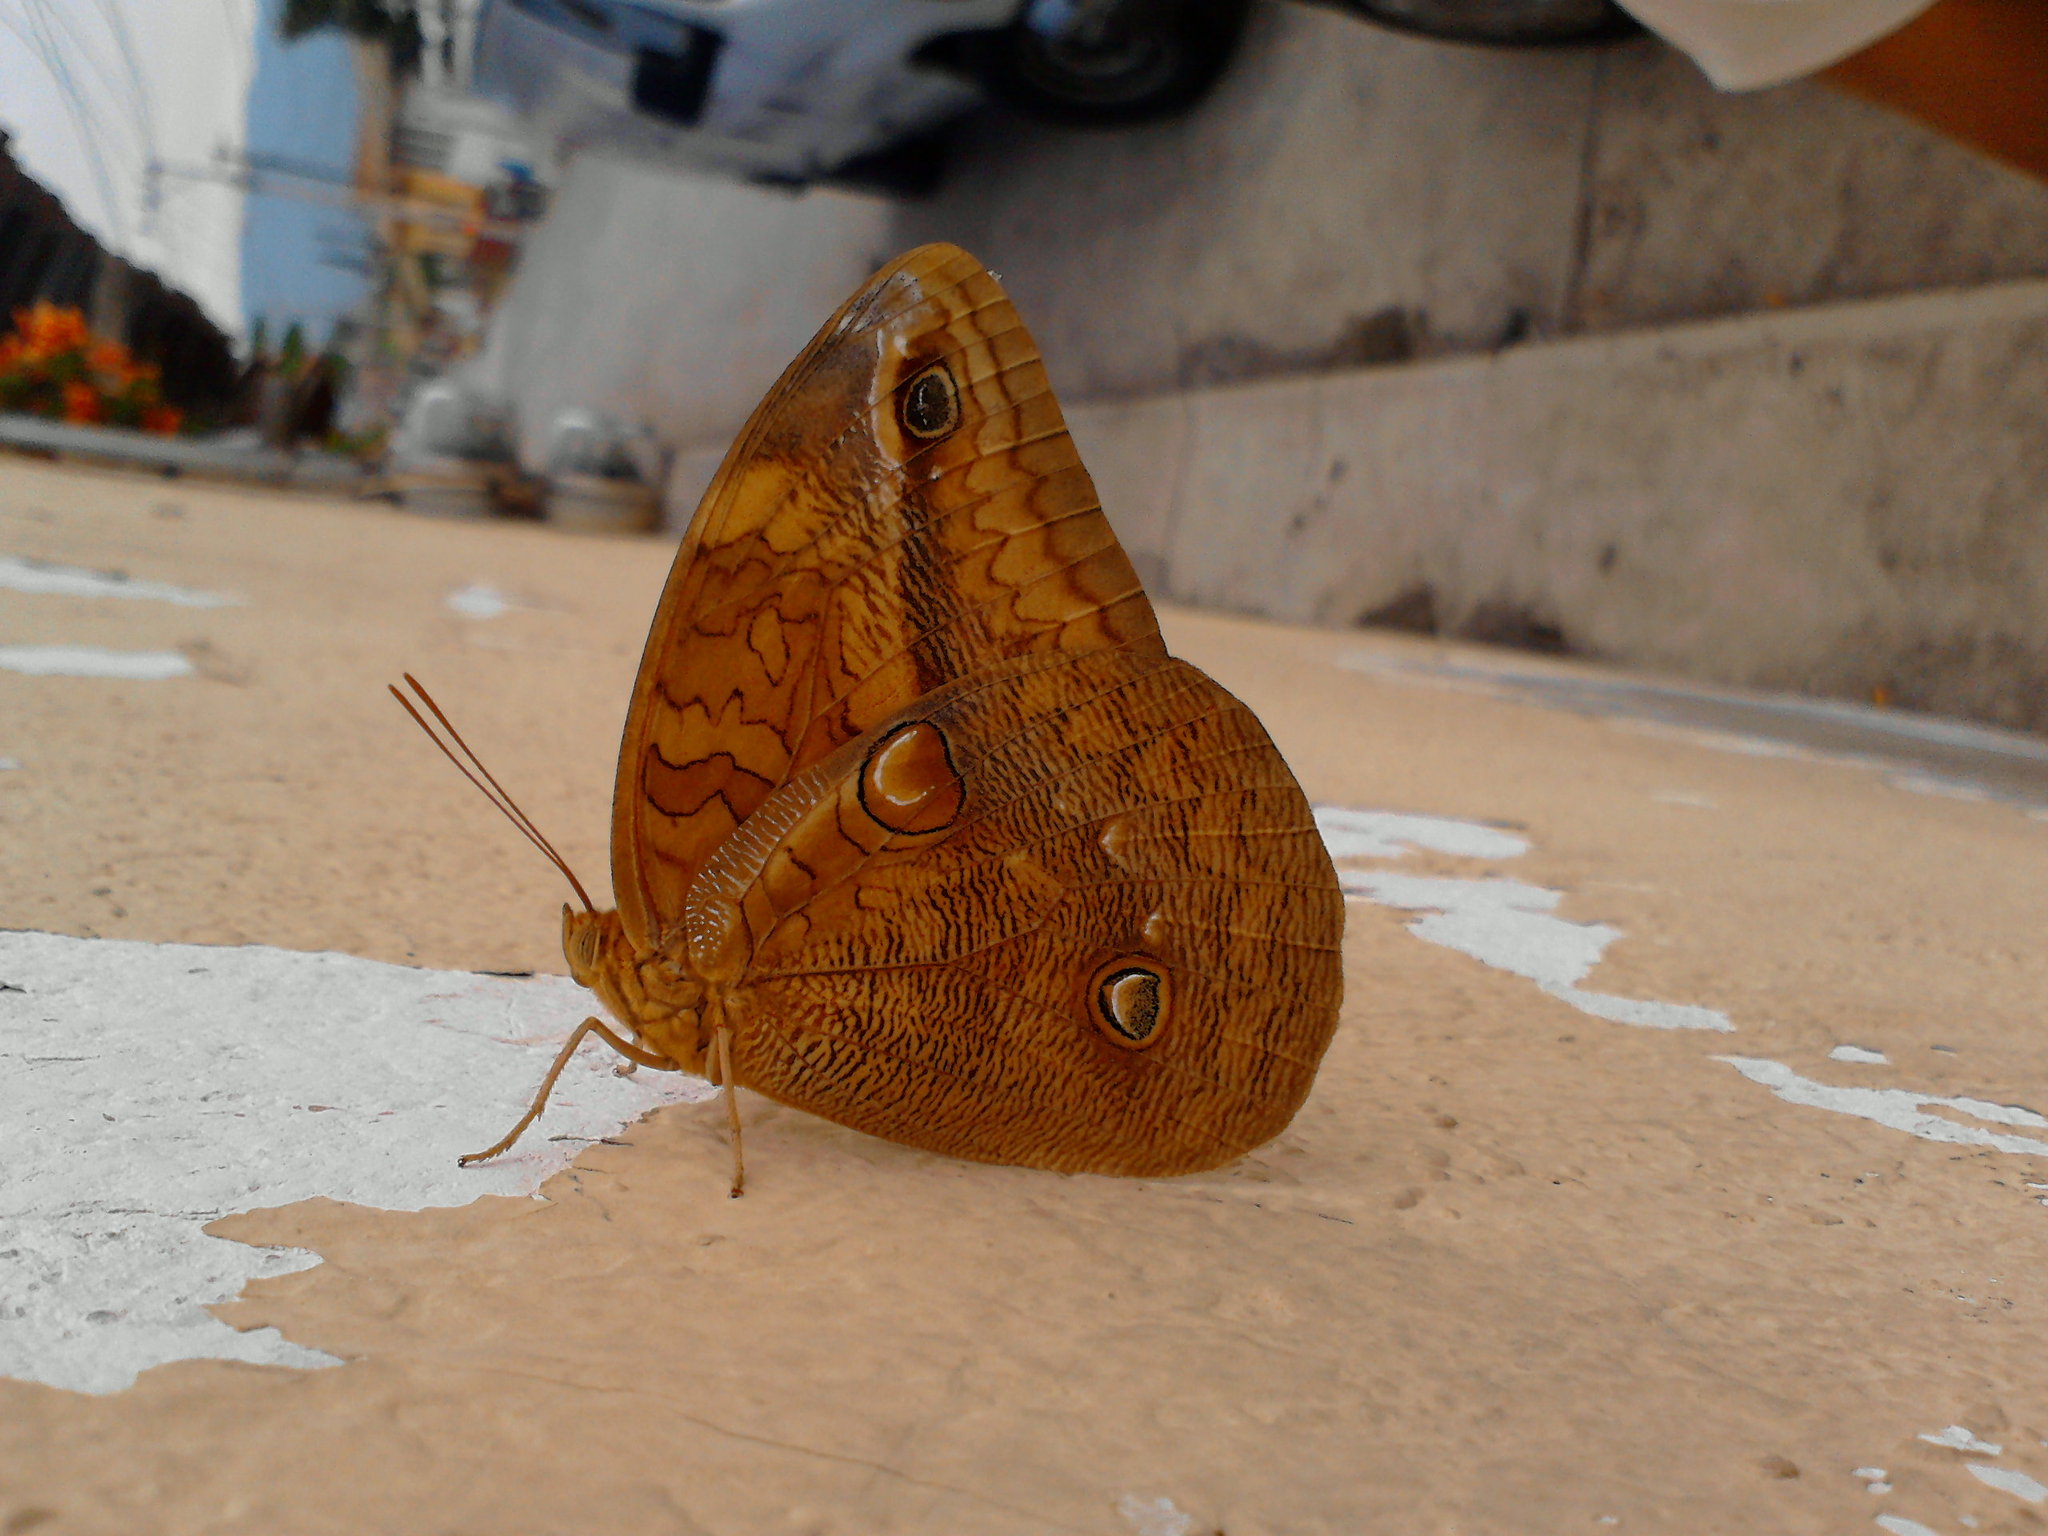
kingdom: Animalia
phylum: Arthropoda
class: Insecta
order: Lepidoptera
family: Nymphalidae
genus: Opsiphanes
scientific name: Opsiphanes boisduvalii
